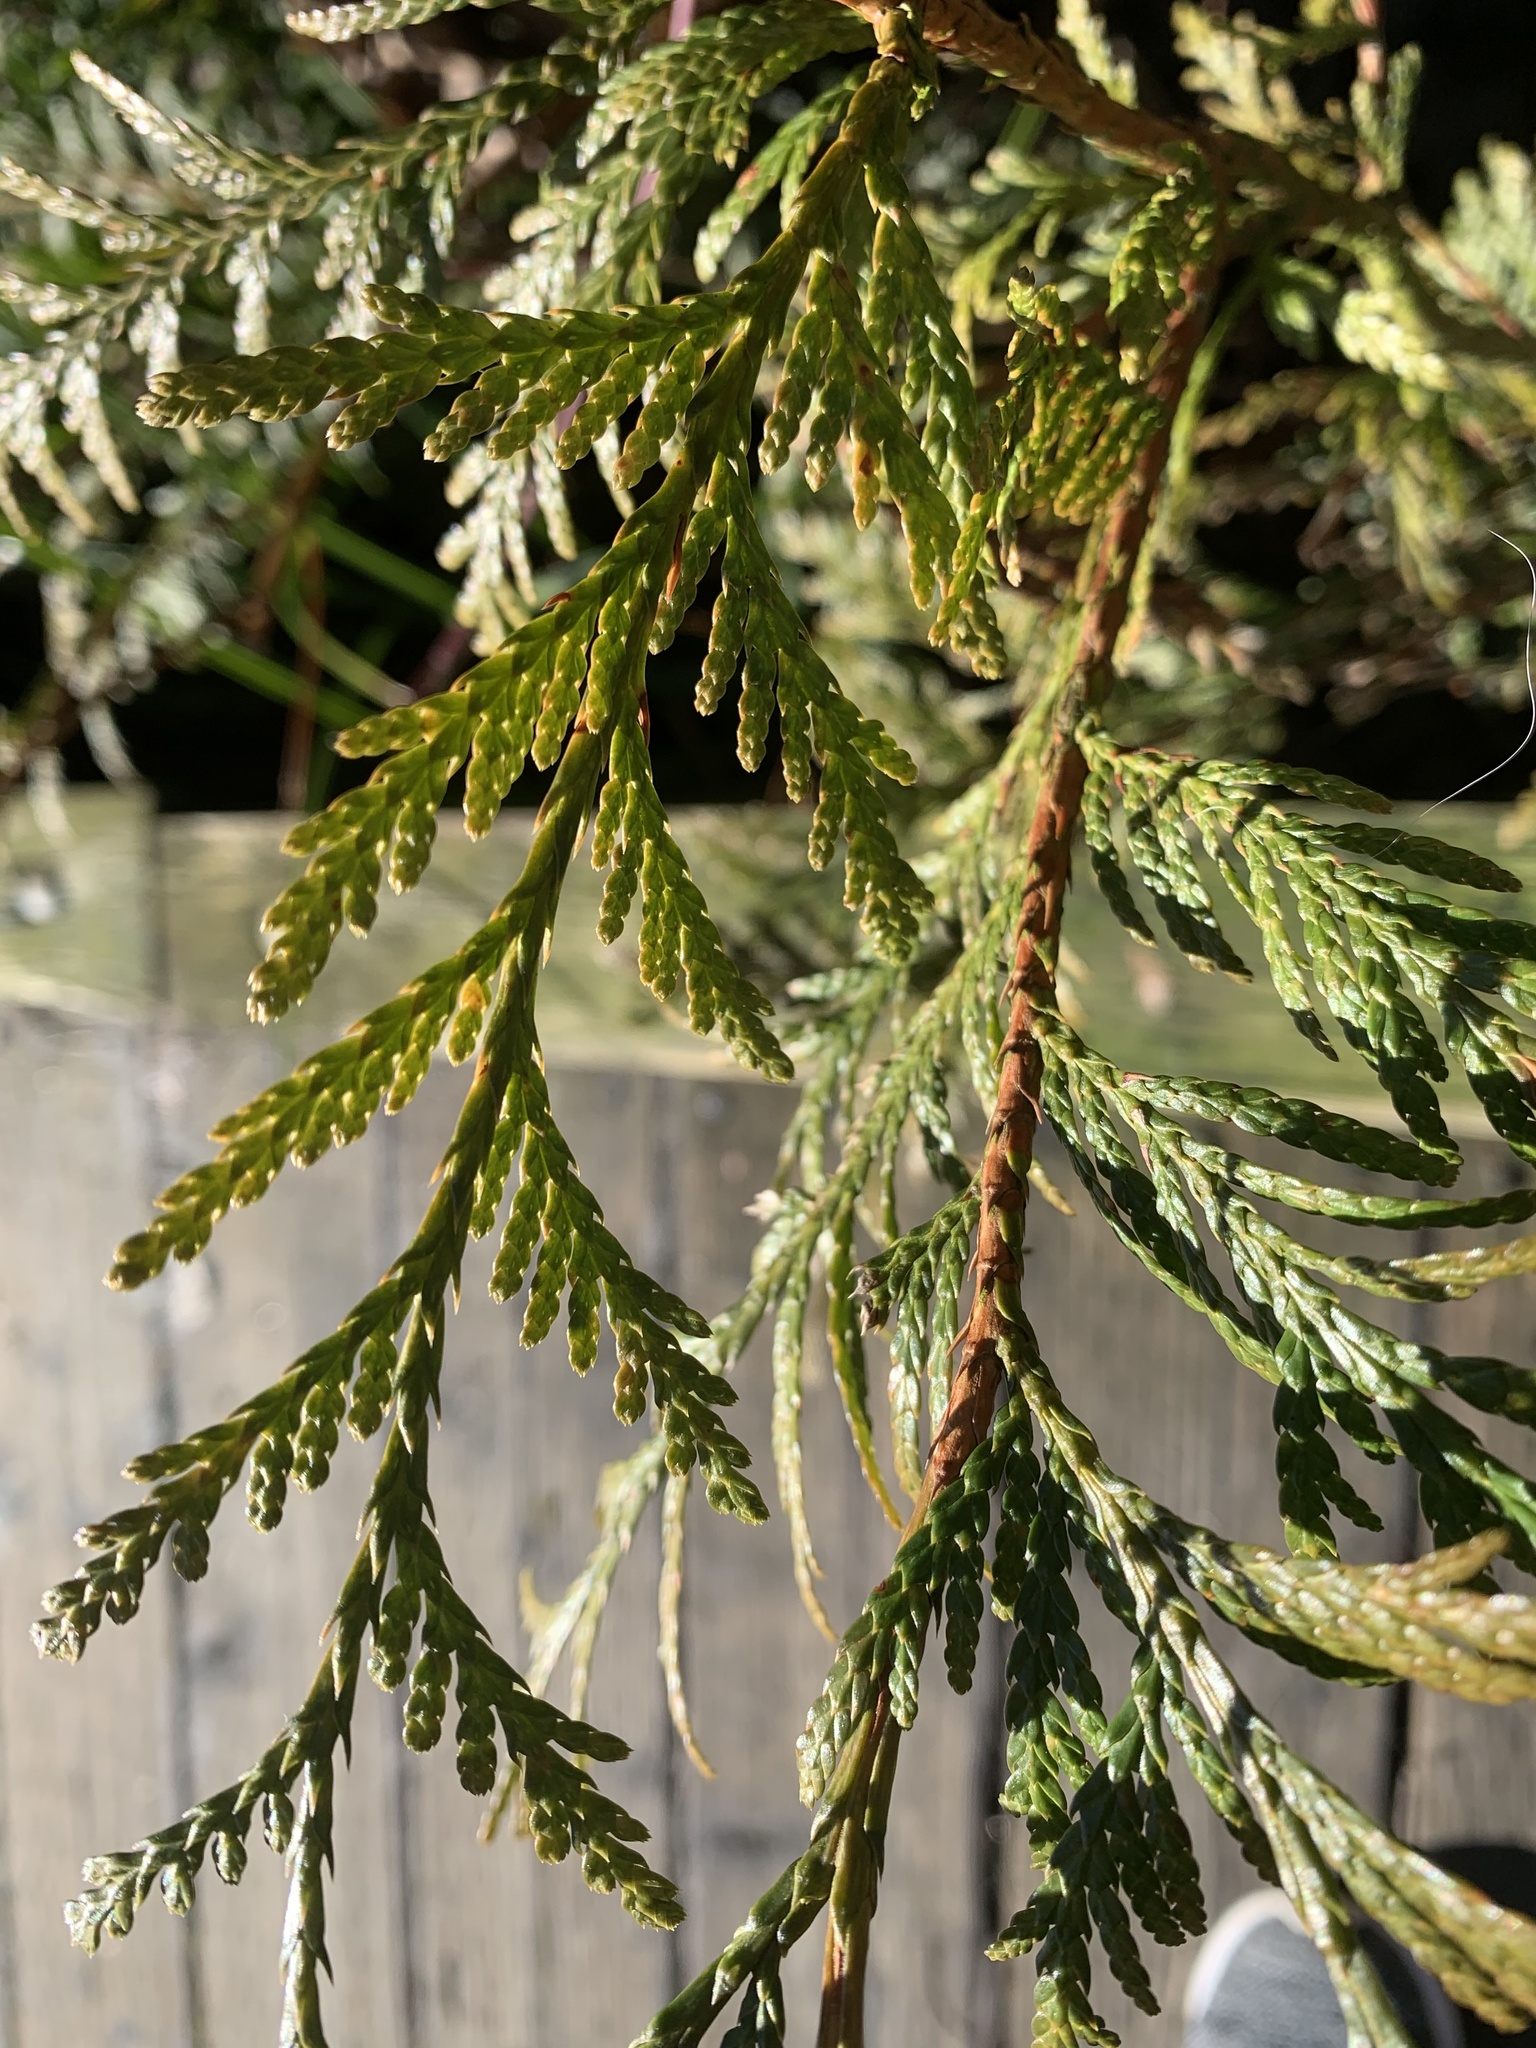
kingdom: Plantae
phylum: Tracheophyta
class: Pinopsida
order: Pinales
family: Cupressaceae
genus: Thuja
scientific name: Thuja plicata
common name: Western red-cedar
